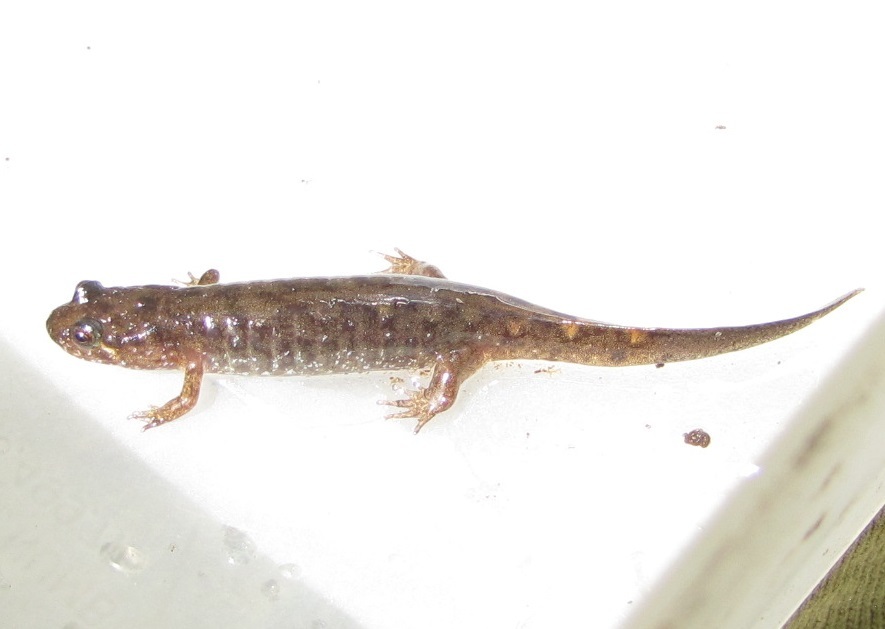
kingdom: Animalia
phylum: Chordata
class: Amphibia
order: Caudata
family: Plethodontidae
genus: Desmognathus
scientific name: Desmognathus monticola
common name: Seal salamander
